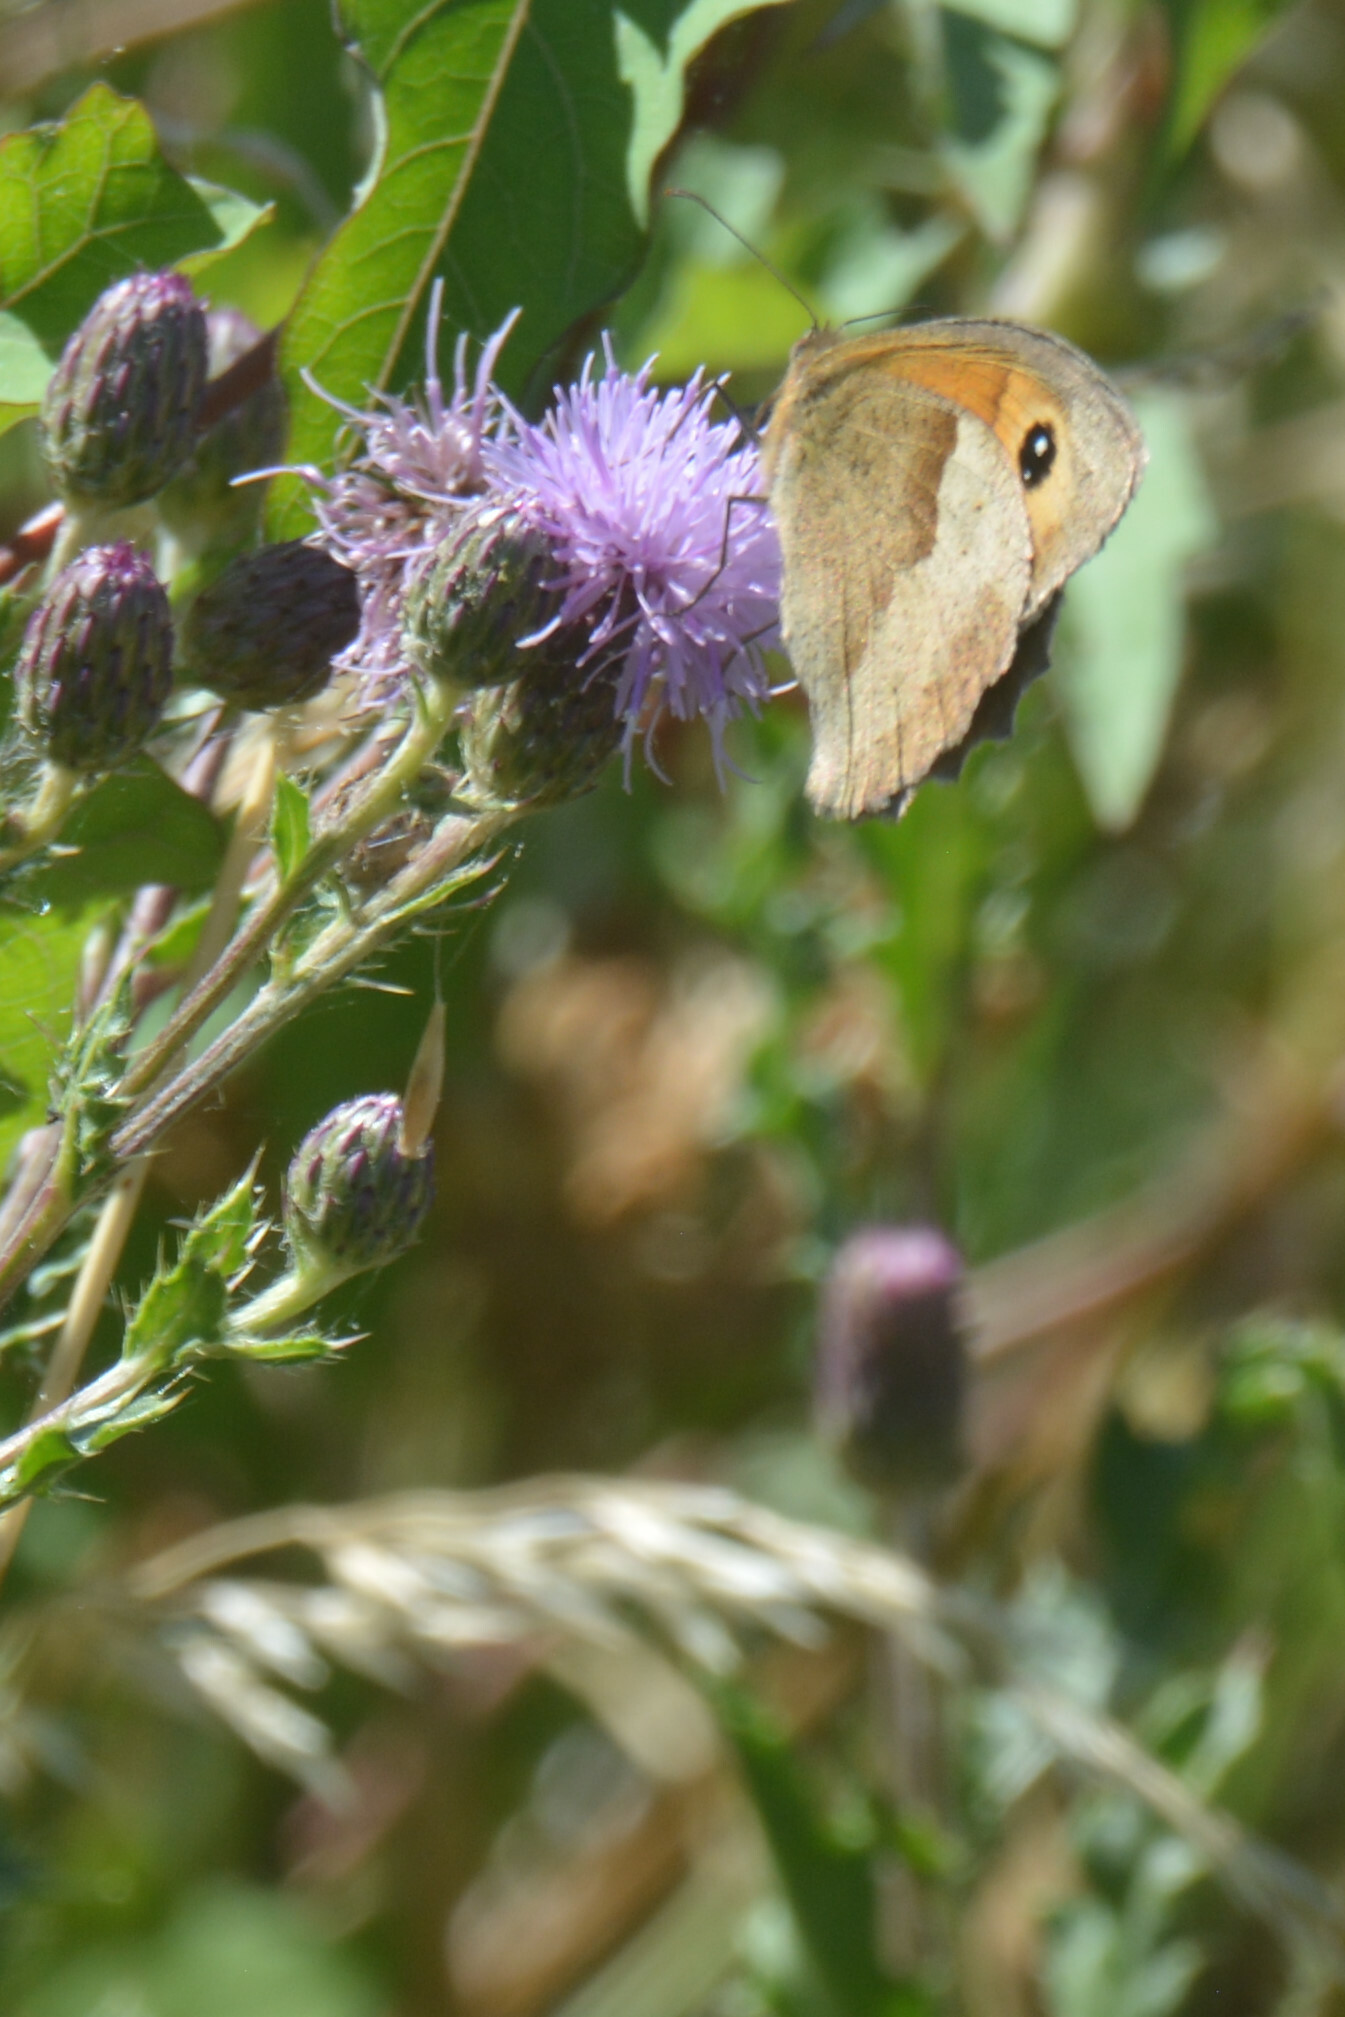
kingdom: Animalia
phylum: Arthropoda
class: Insecta
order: Lepidoptera
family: Nymphalidae
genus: Maniola
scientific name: Maniola jurtina
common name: Meadow brown
